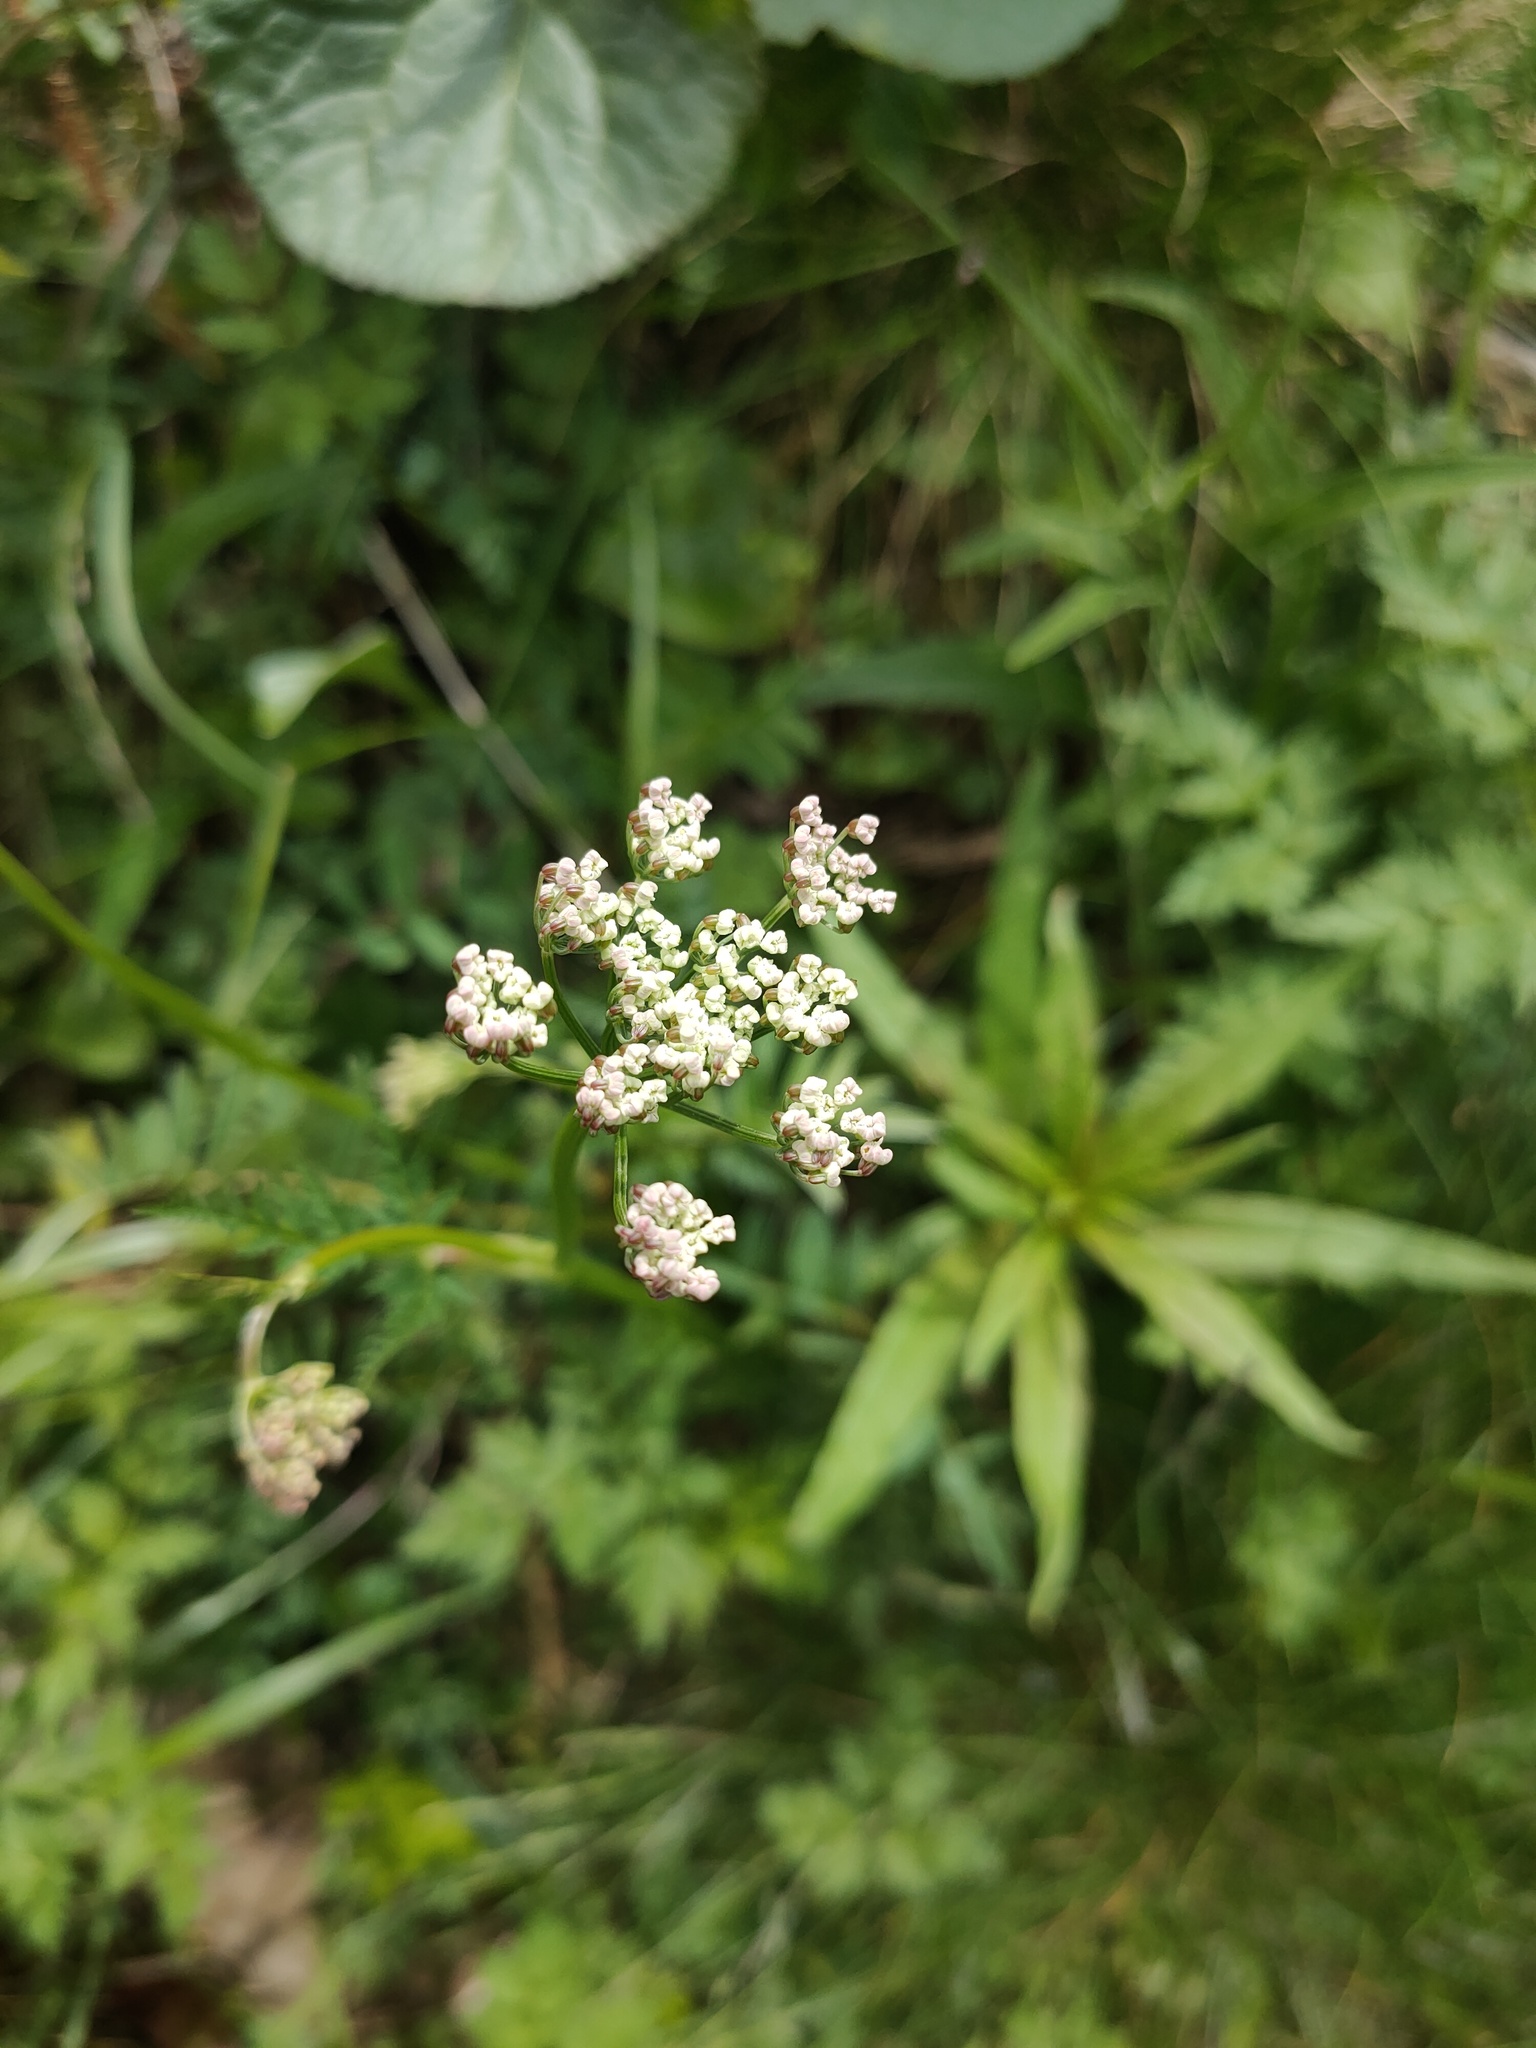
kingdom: Plantae
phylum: Tracheophyta
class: Magnoliopsida
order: Apiales
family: Apiaceae
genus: Carum
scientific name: Carum carvi
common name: Caraway
